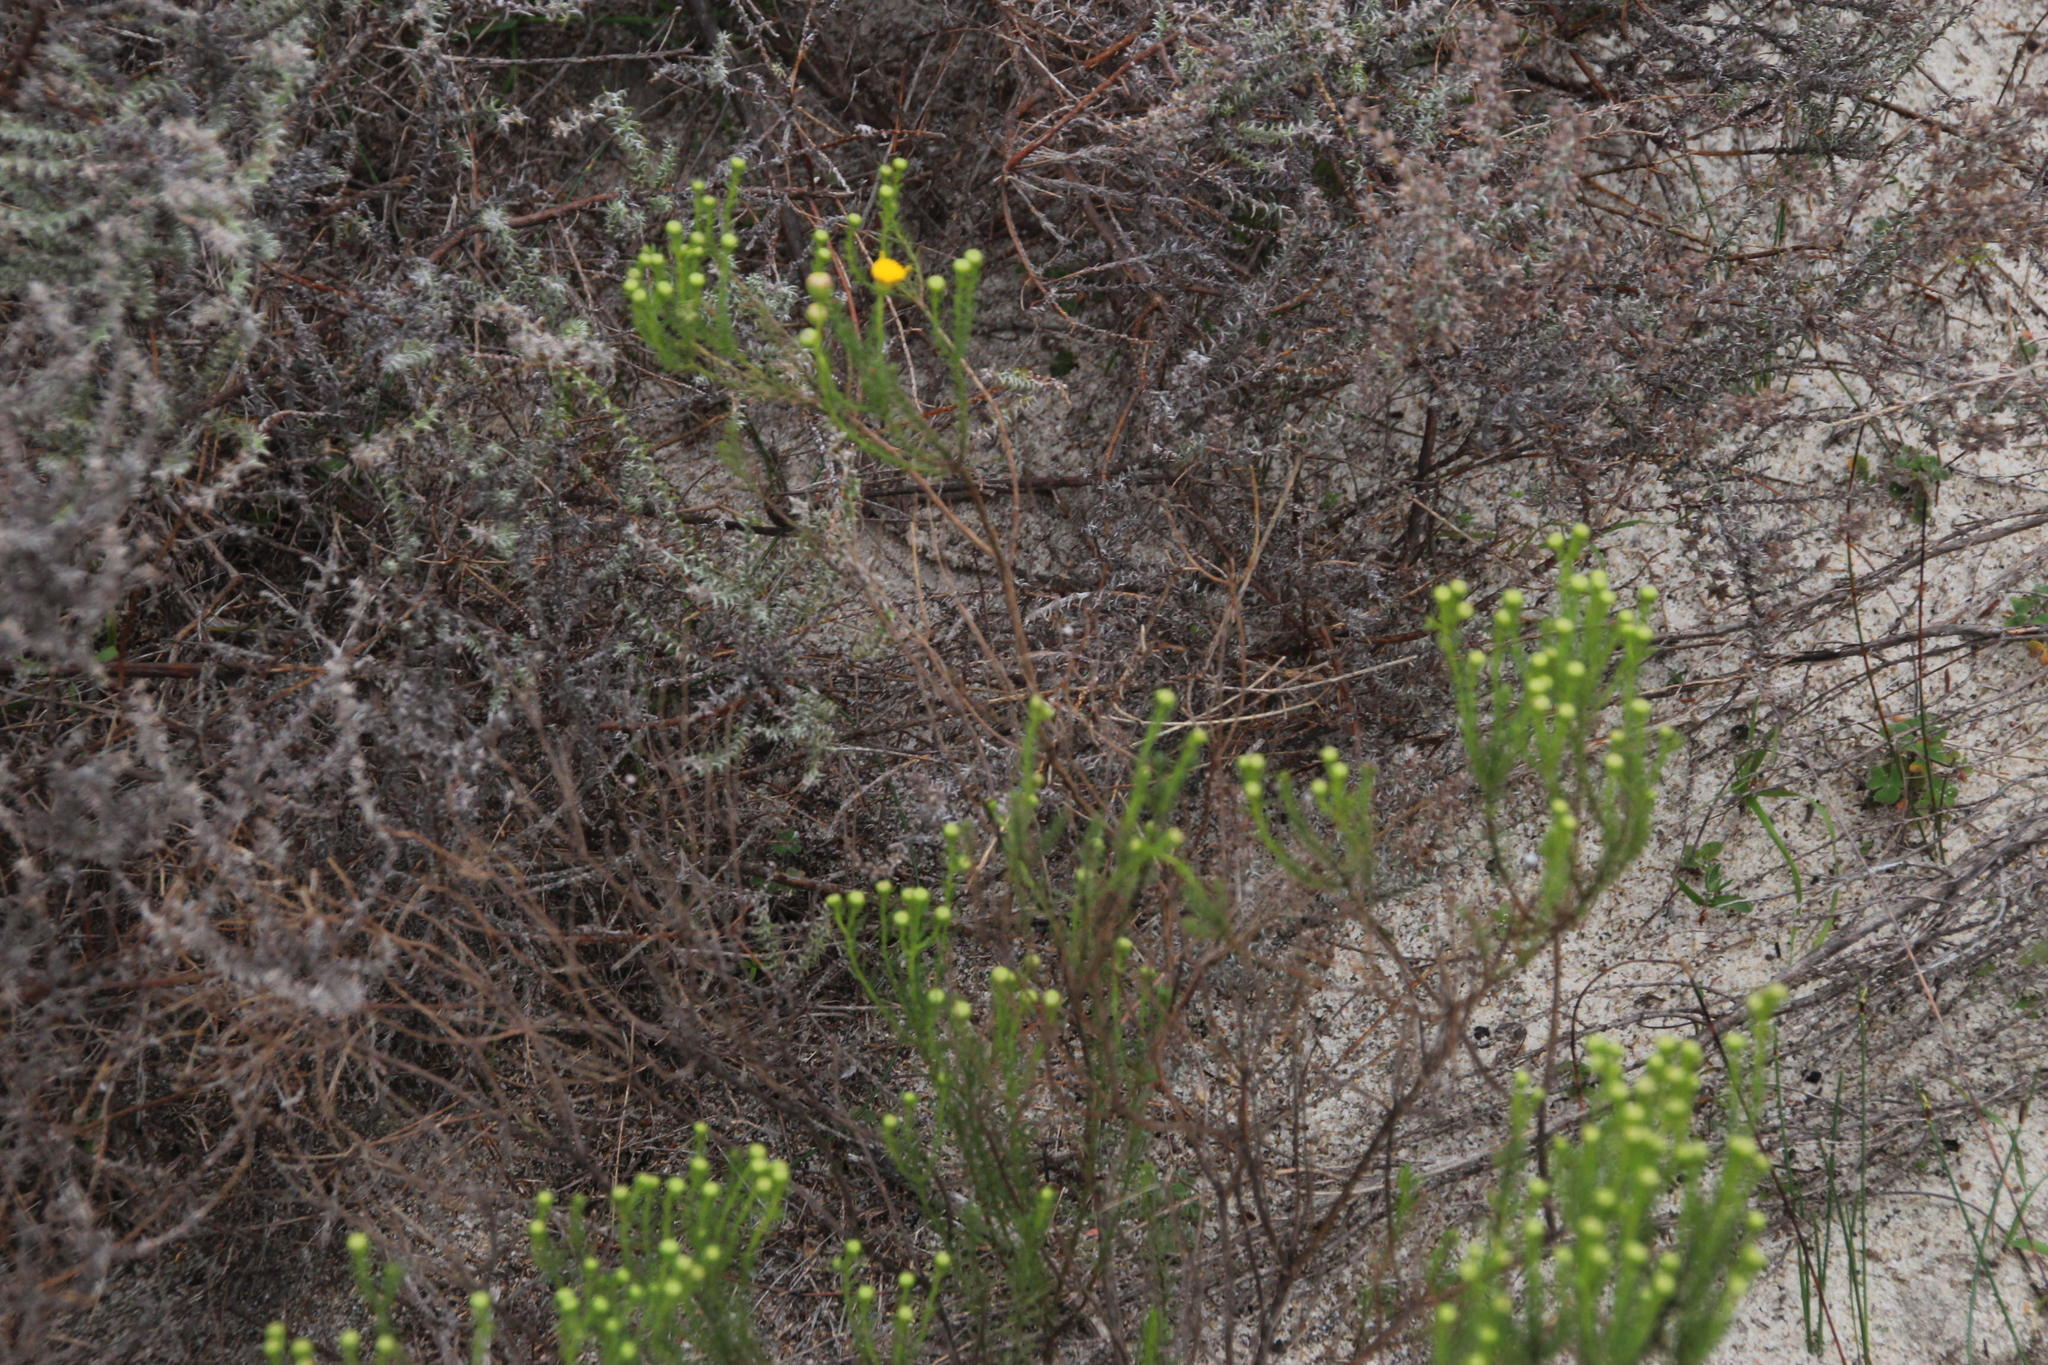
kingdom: Plantae
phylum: Tracheophyta
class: Magnoliopsida
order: Asterales
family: Asteraceae
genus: Chrysocoma
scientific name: Chrysocoma ciliata
